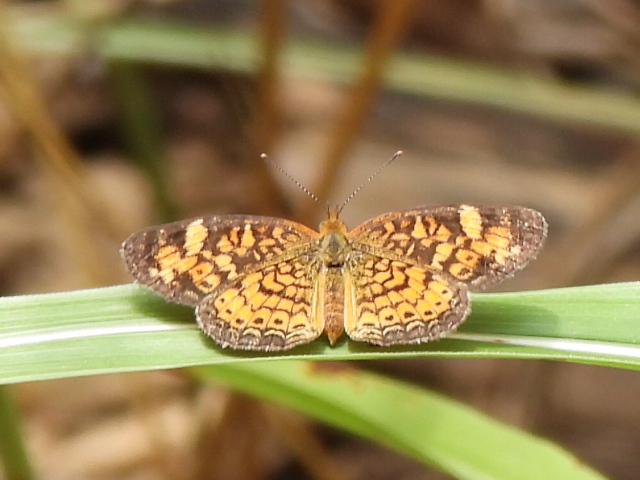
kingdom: Animalia
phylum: Arthropoda
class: Insecta
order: Lepidoptera
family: Nymphalidae
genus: Phyciodes
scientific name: Phyciodes tharos
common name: Pearl crescent
